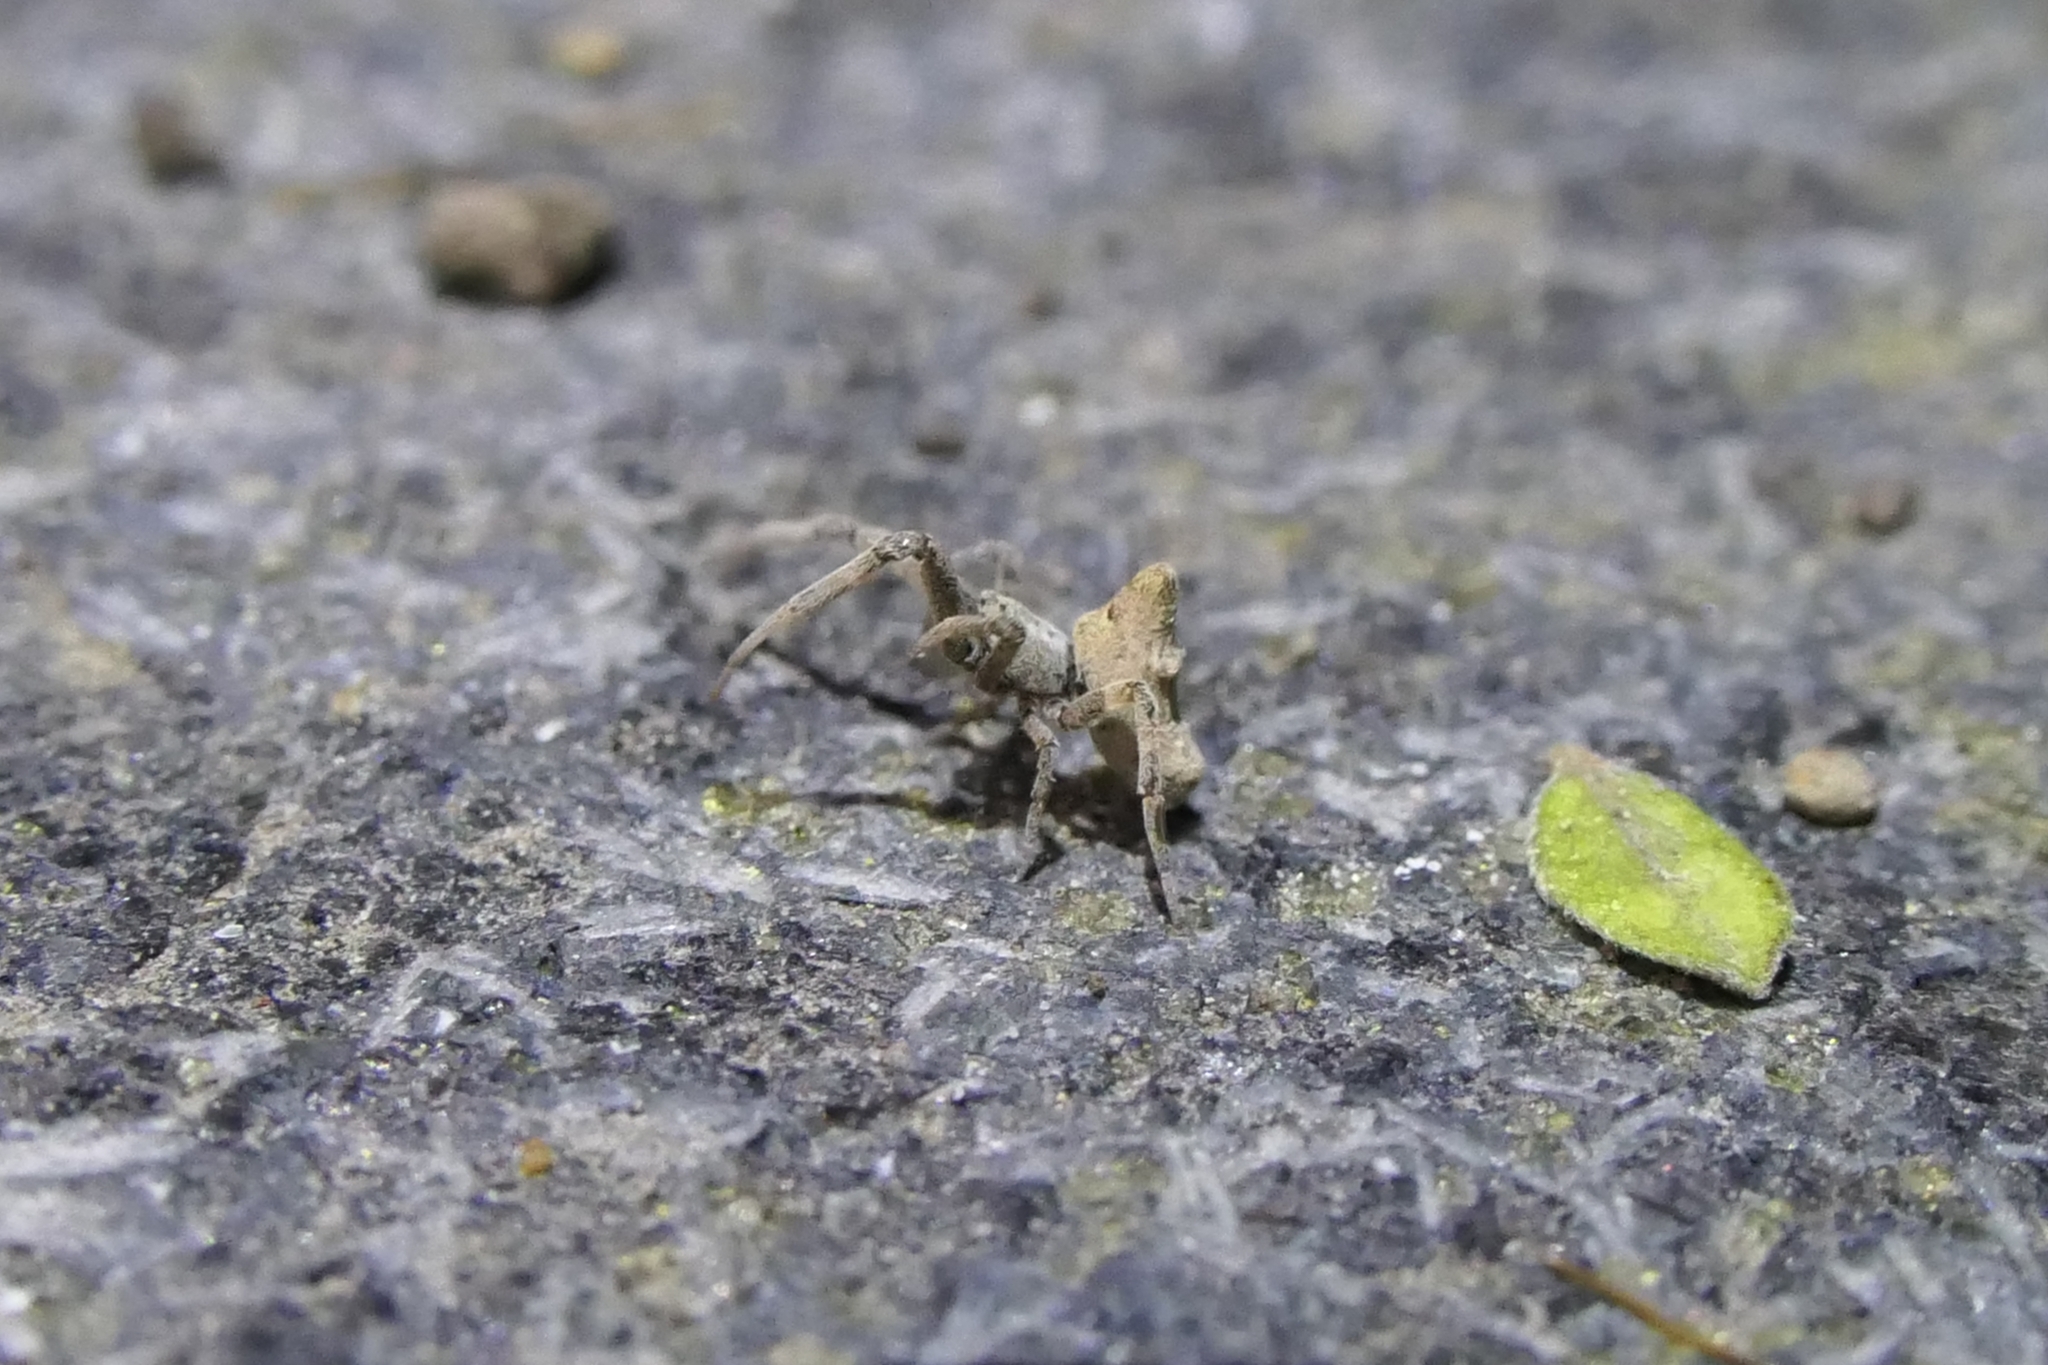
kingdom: Animalia
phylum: Arthropoda
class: Arachnida
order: Araneae
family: Uloboridae
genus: Philoponella
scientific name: Philoponella congregabilis
